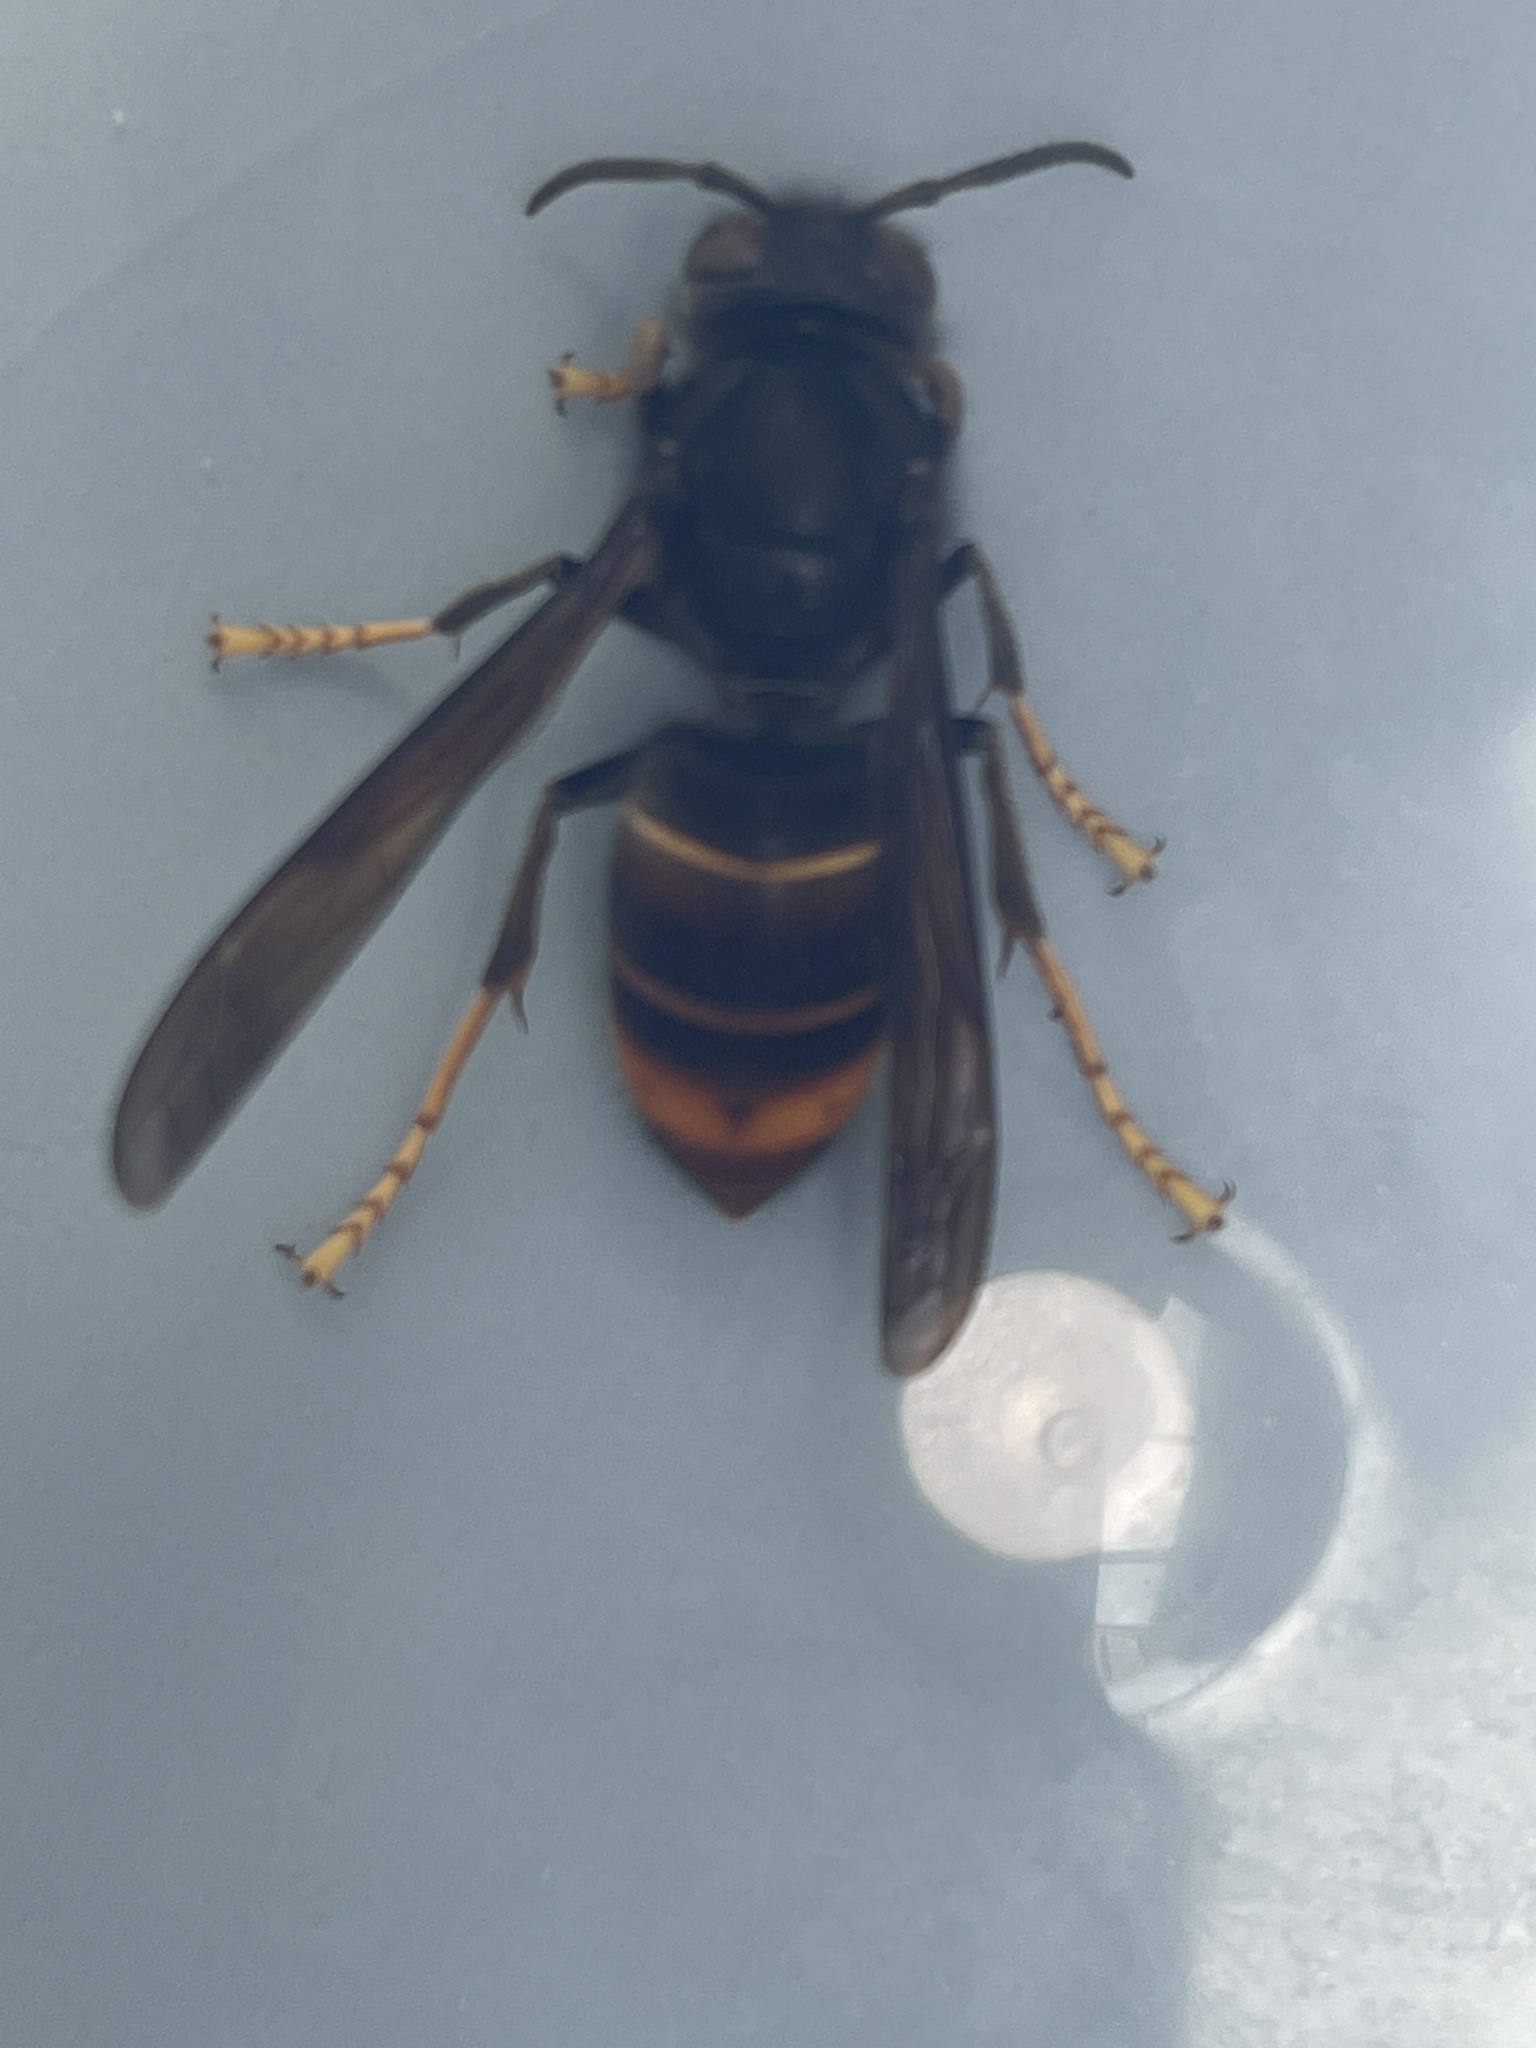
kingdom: Animalia
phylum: Arthropoda
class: Insecta
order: Hymenoptera
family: Vespidae
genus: Vespa
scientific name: Vespa velutina
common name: Asian hornet
